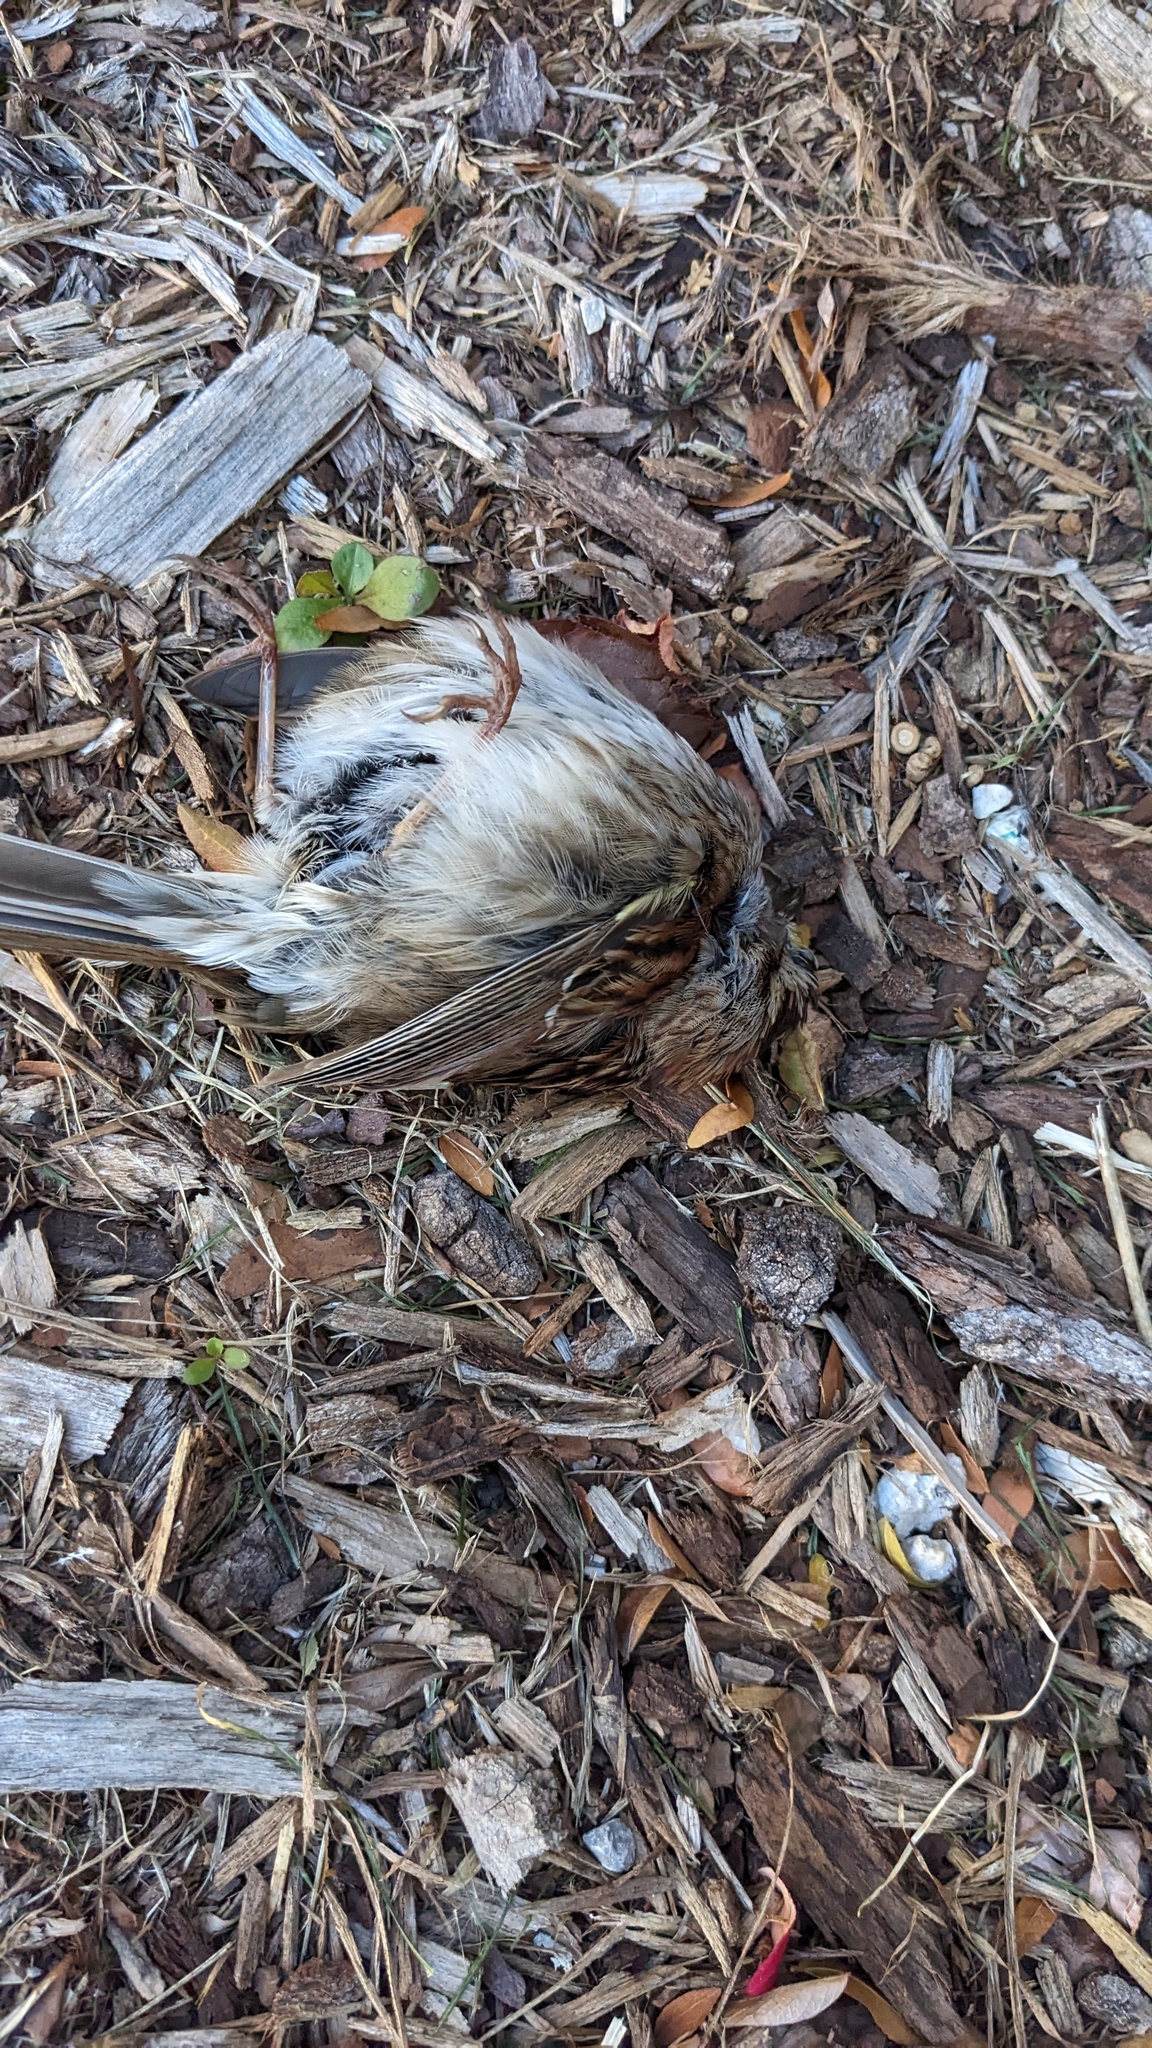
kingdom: Animalia
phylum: Chordata
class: Aves
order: Passeriformes
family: Passerellidae
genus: Zonotrichia
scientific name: Zonotrichia albicollis
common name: White-throated sparrow
